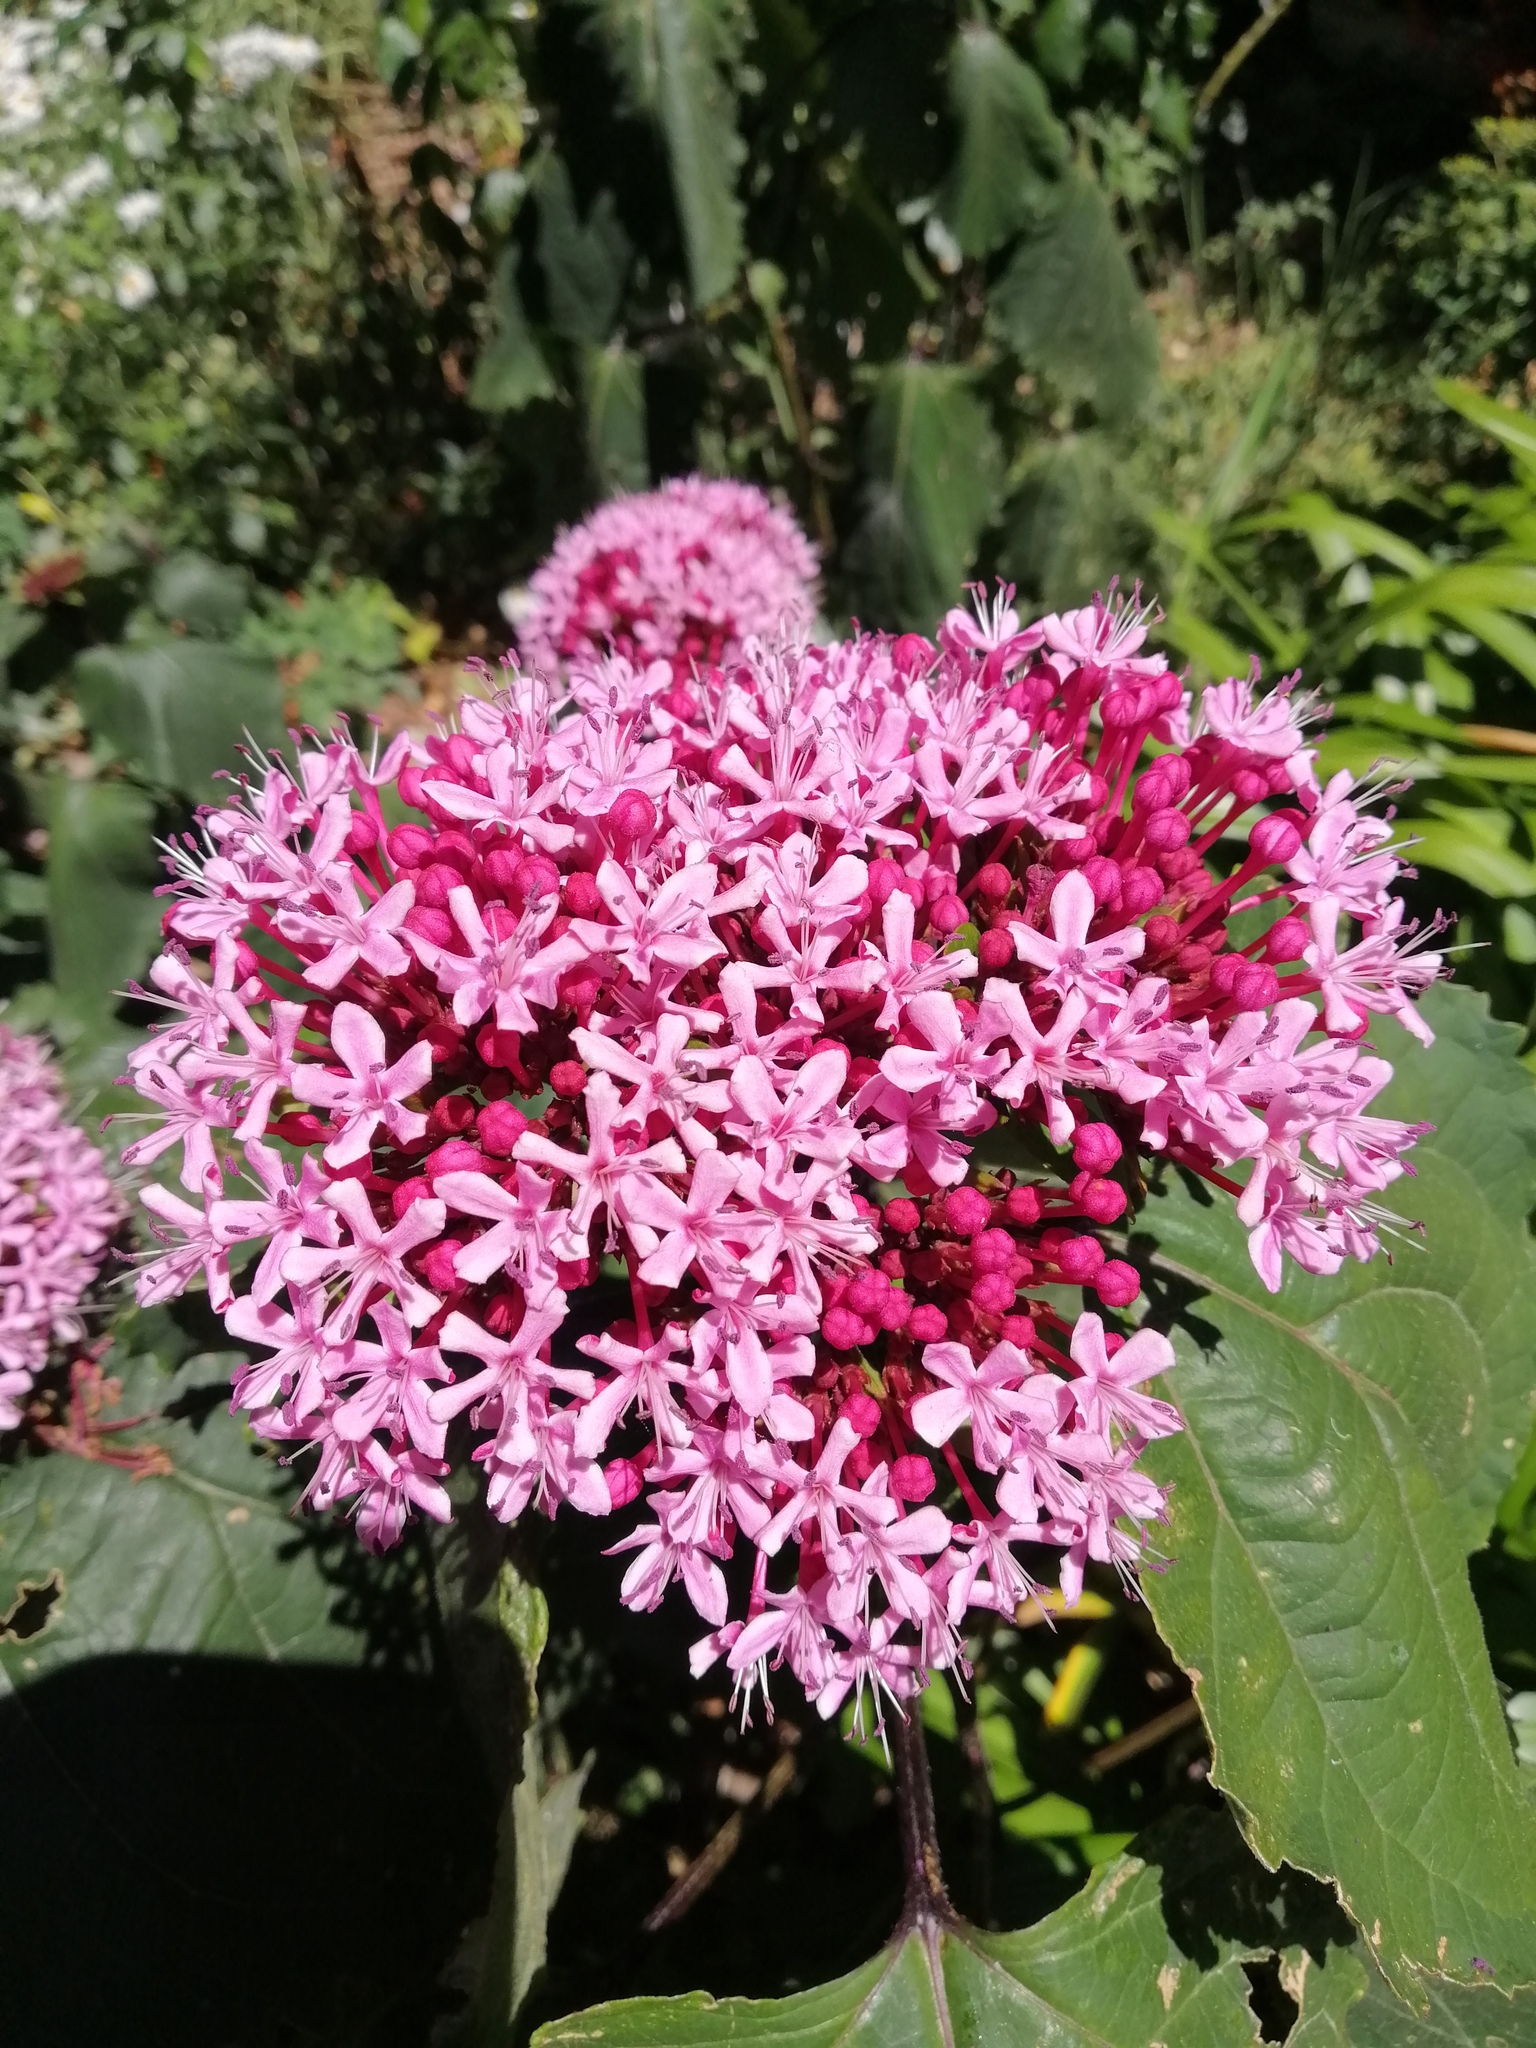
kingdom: Plantae
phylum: Tracheophyta
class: Magnoliopsida
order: Lamiales
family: Lamiaceae
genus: Clerodendrum
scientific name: Clerodendrum bungei
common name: Rose glorybower
